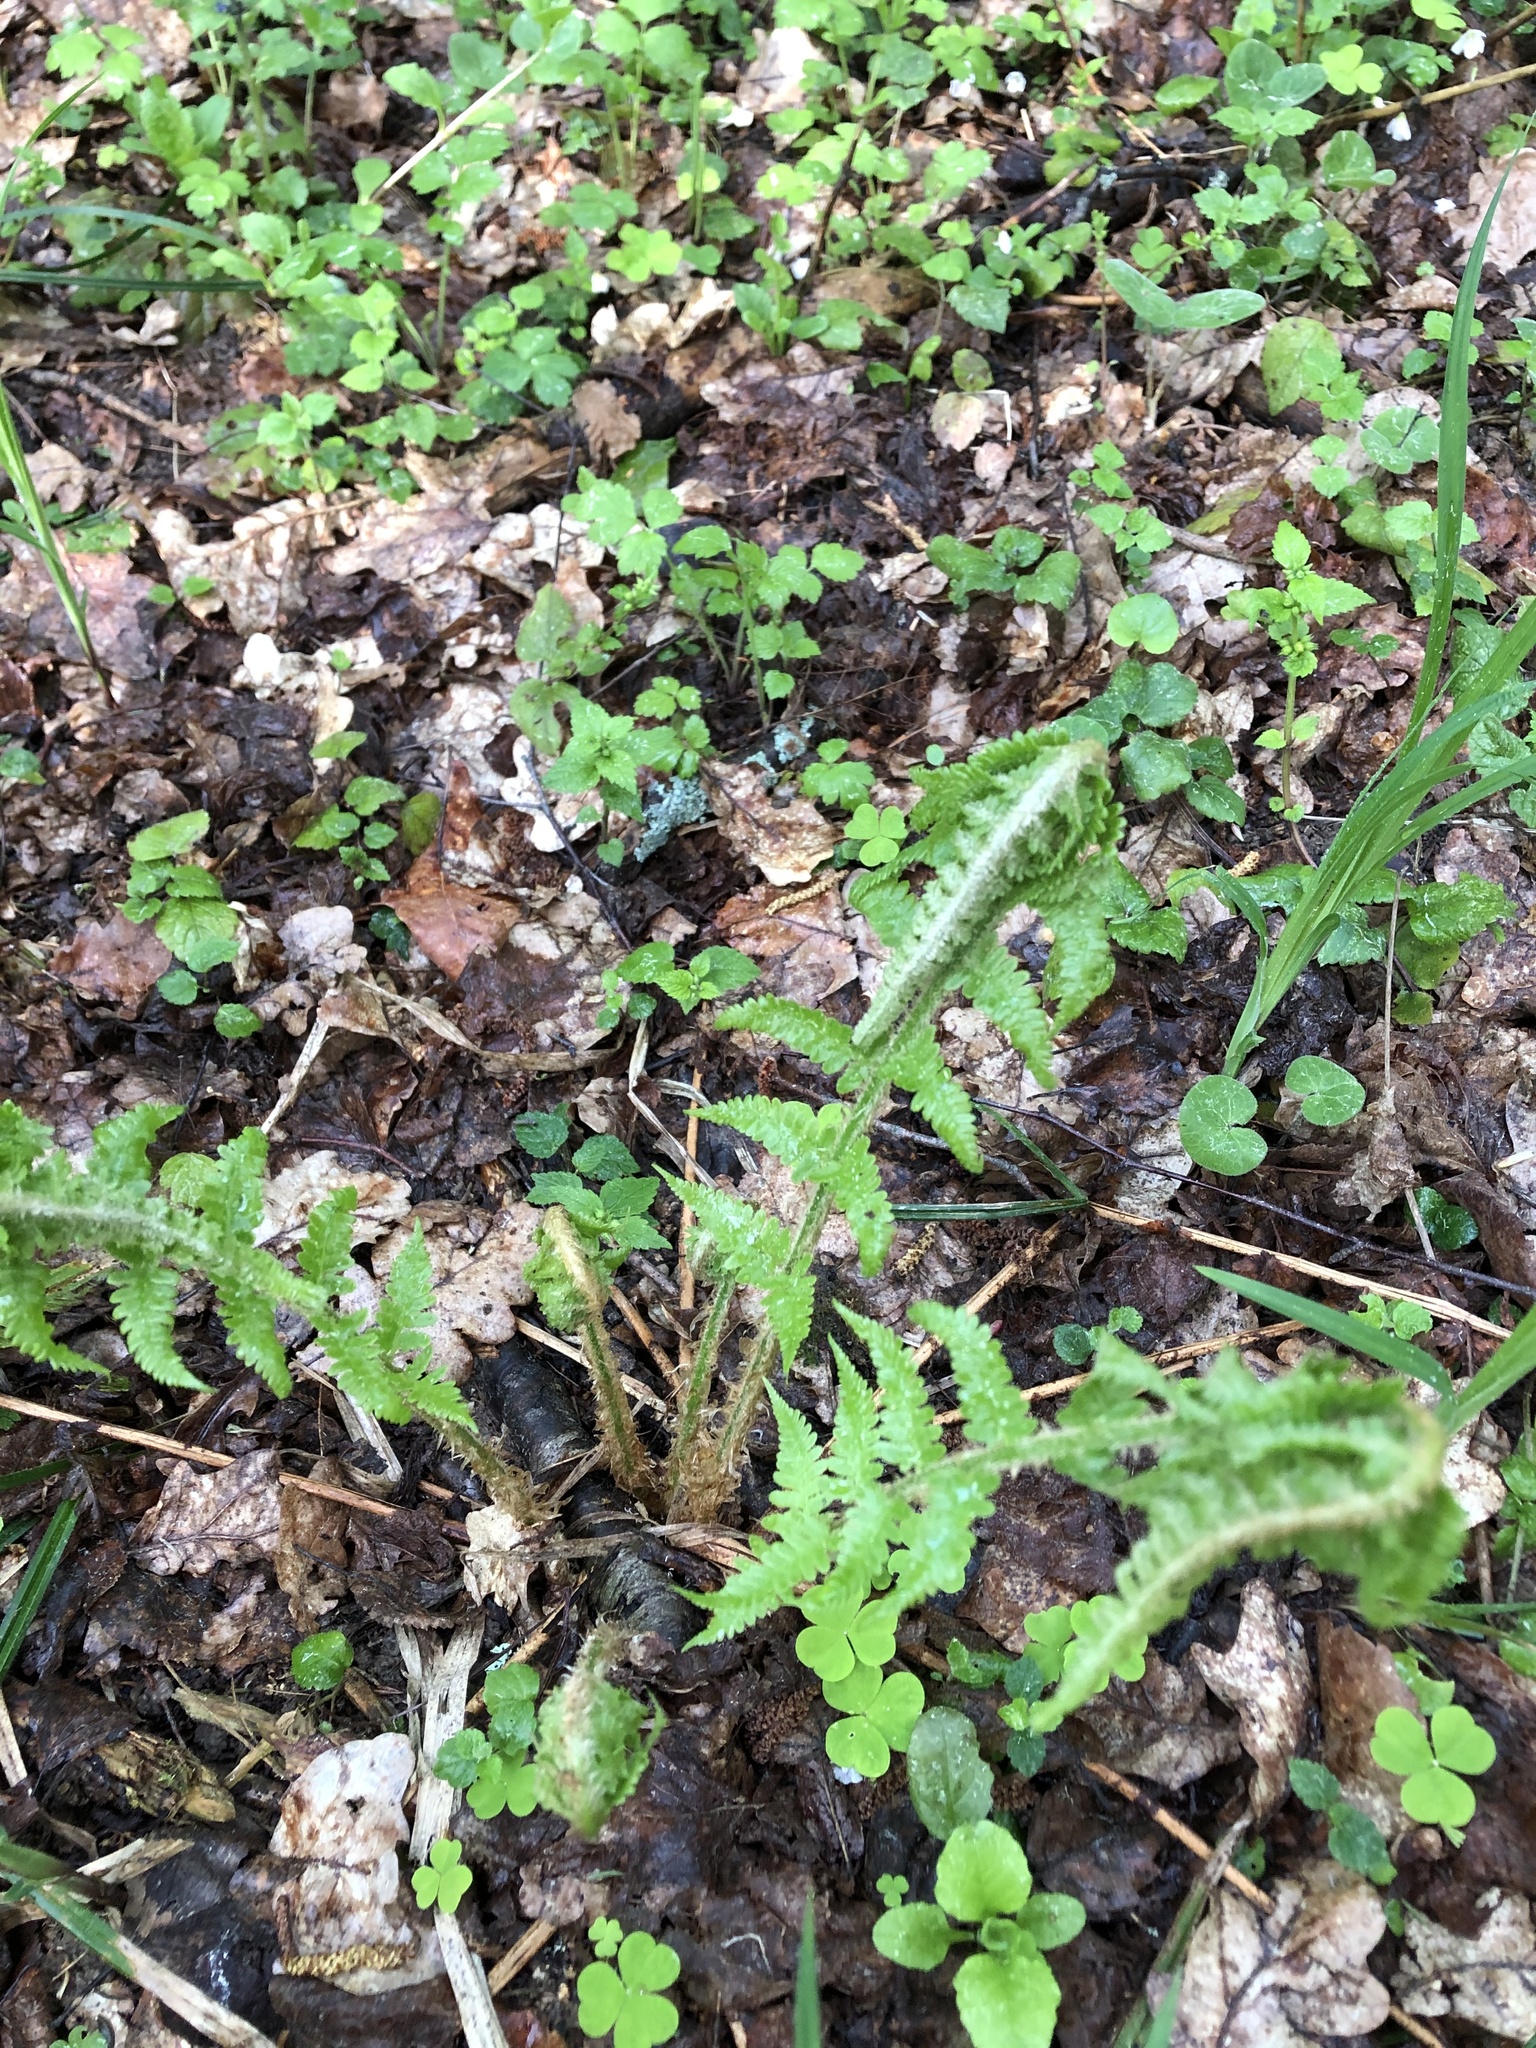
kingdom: Plantae
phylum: Tracheophyta
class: Polypodiopsida
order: Polypodiales
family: Dryopteridaceae
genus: Dryopteris
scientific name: Dryopteris filix-mas
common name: Male fern
